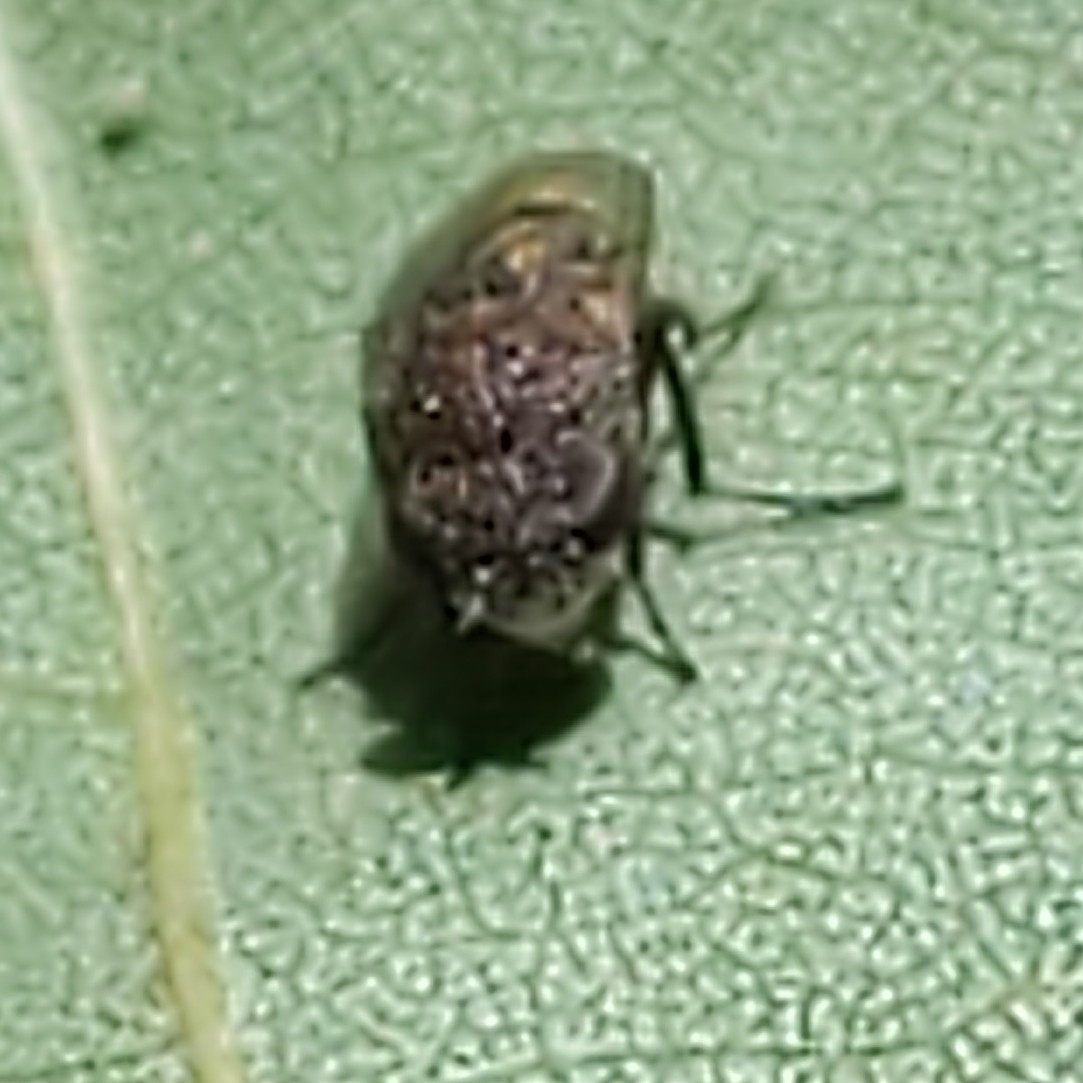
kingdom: Animalia
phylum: Arthropoda
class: Insecta
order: Diptera
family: Ephydridae
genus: Paralimna
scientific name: Paralimna punctipennis
